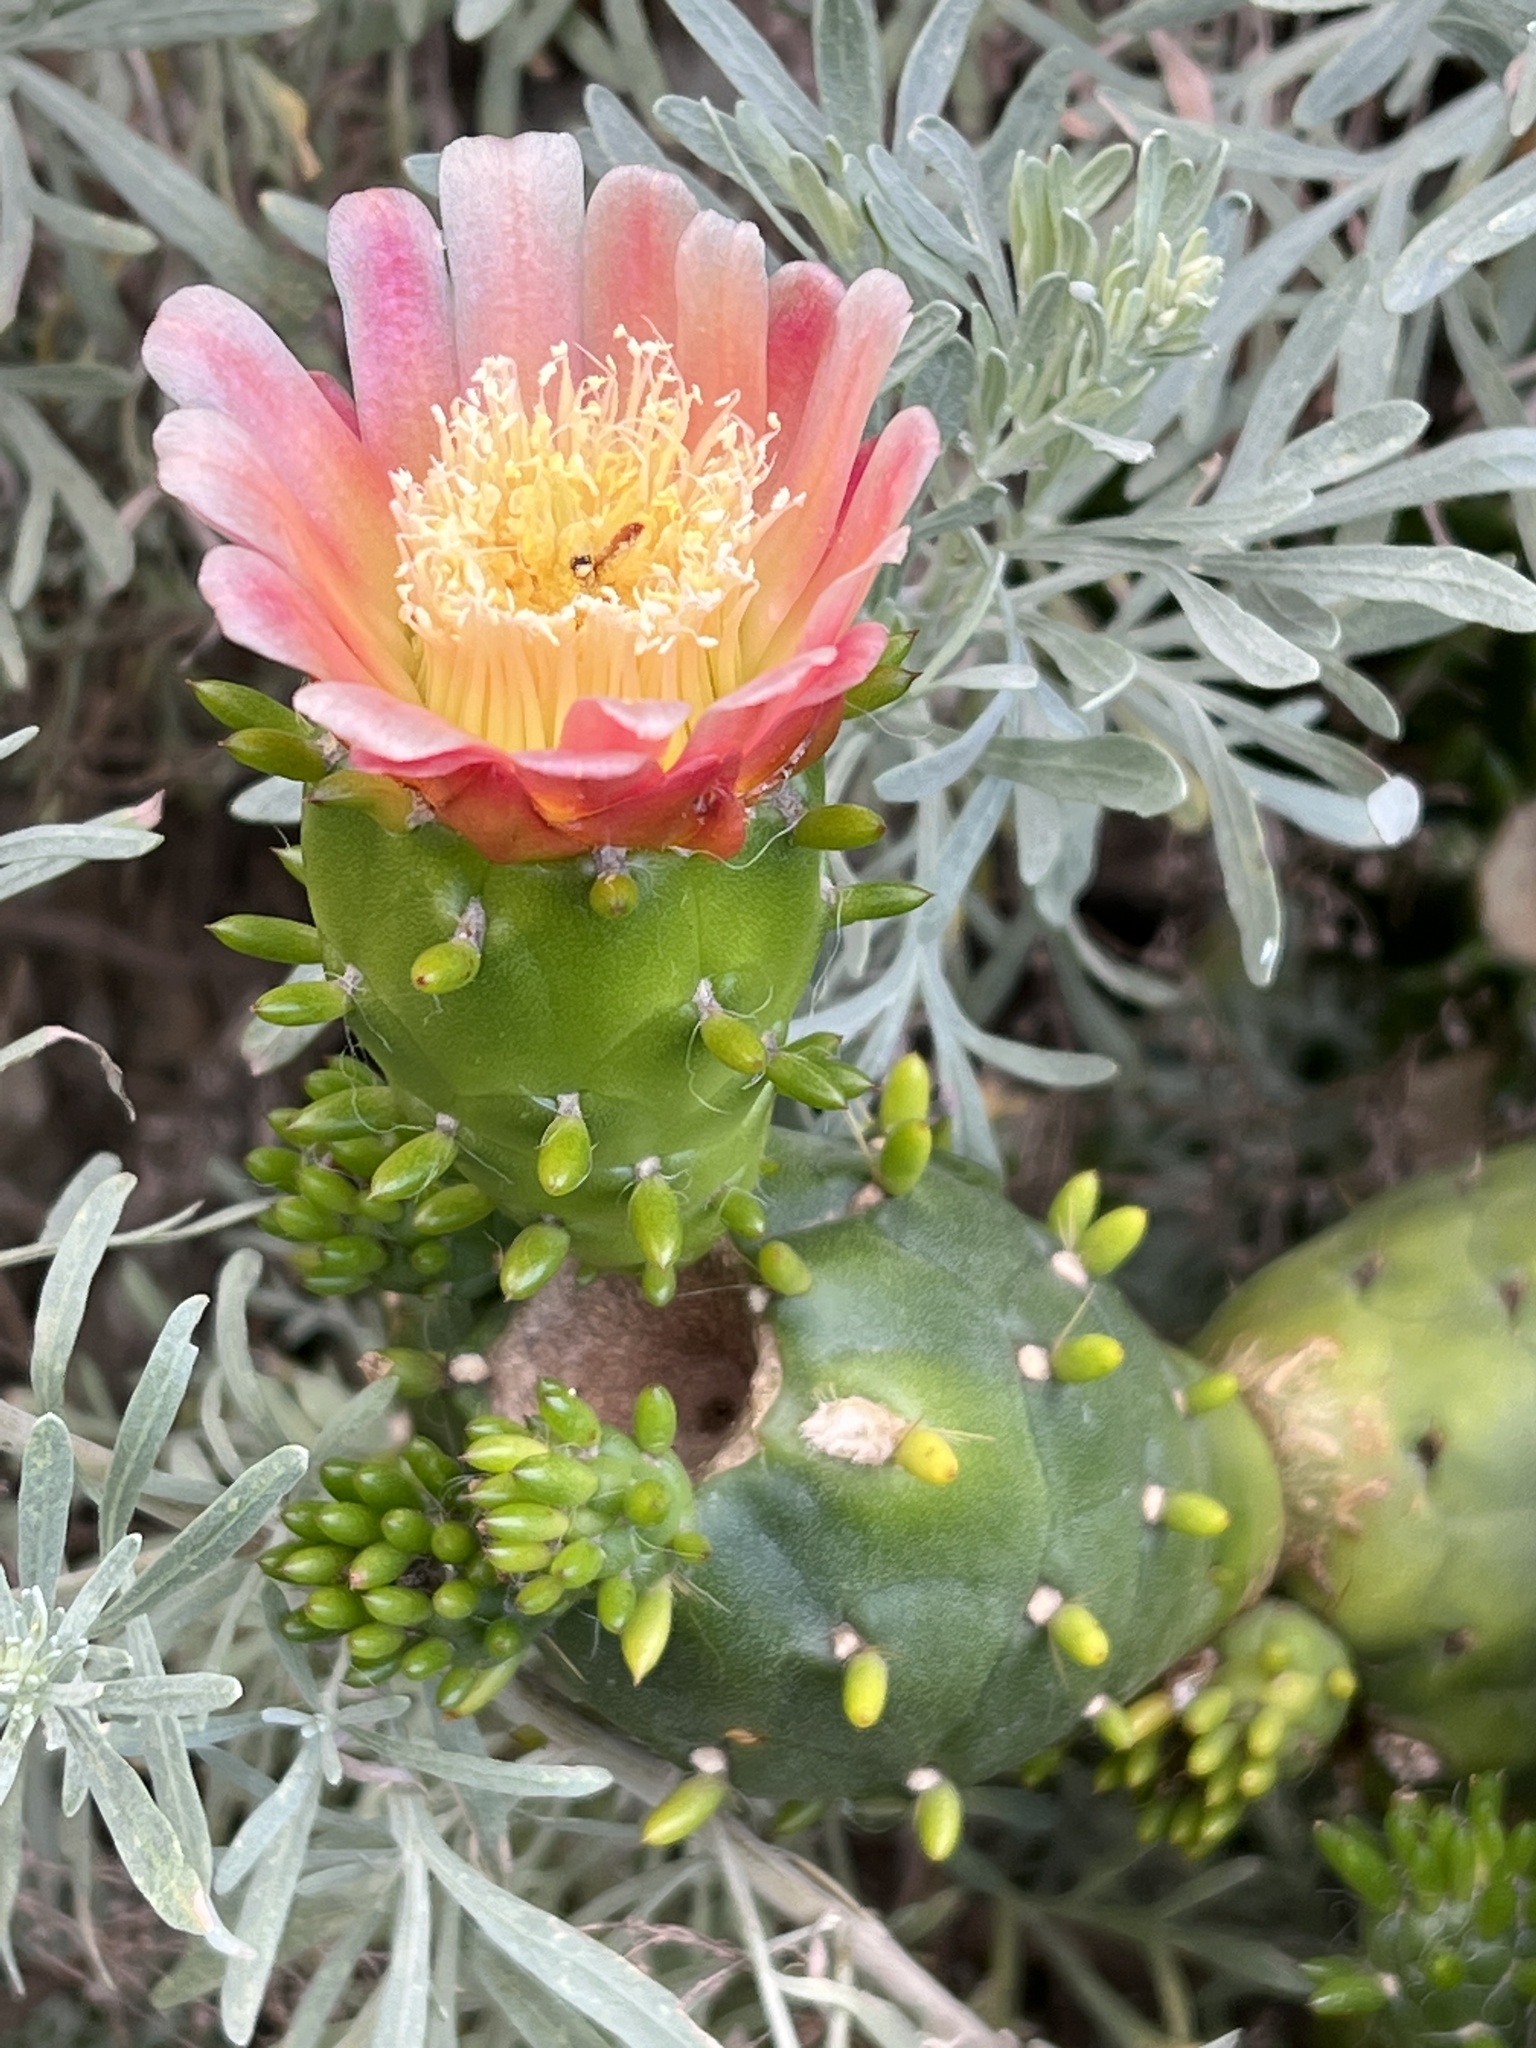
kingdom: Plantae
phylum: Tracheophyta
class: Magnoliopsida
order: Caryophyllales
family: Cactaceae
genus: Austrocylindropuntia
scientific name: Austrocylindropuntia subulata
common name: Eve's needle cactus
